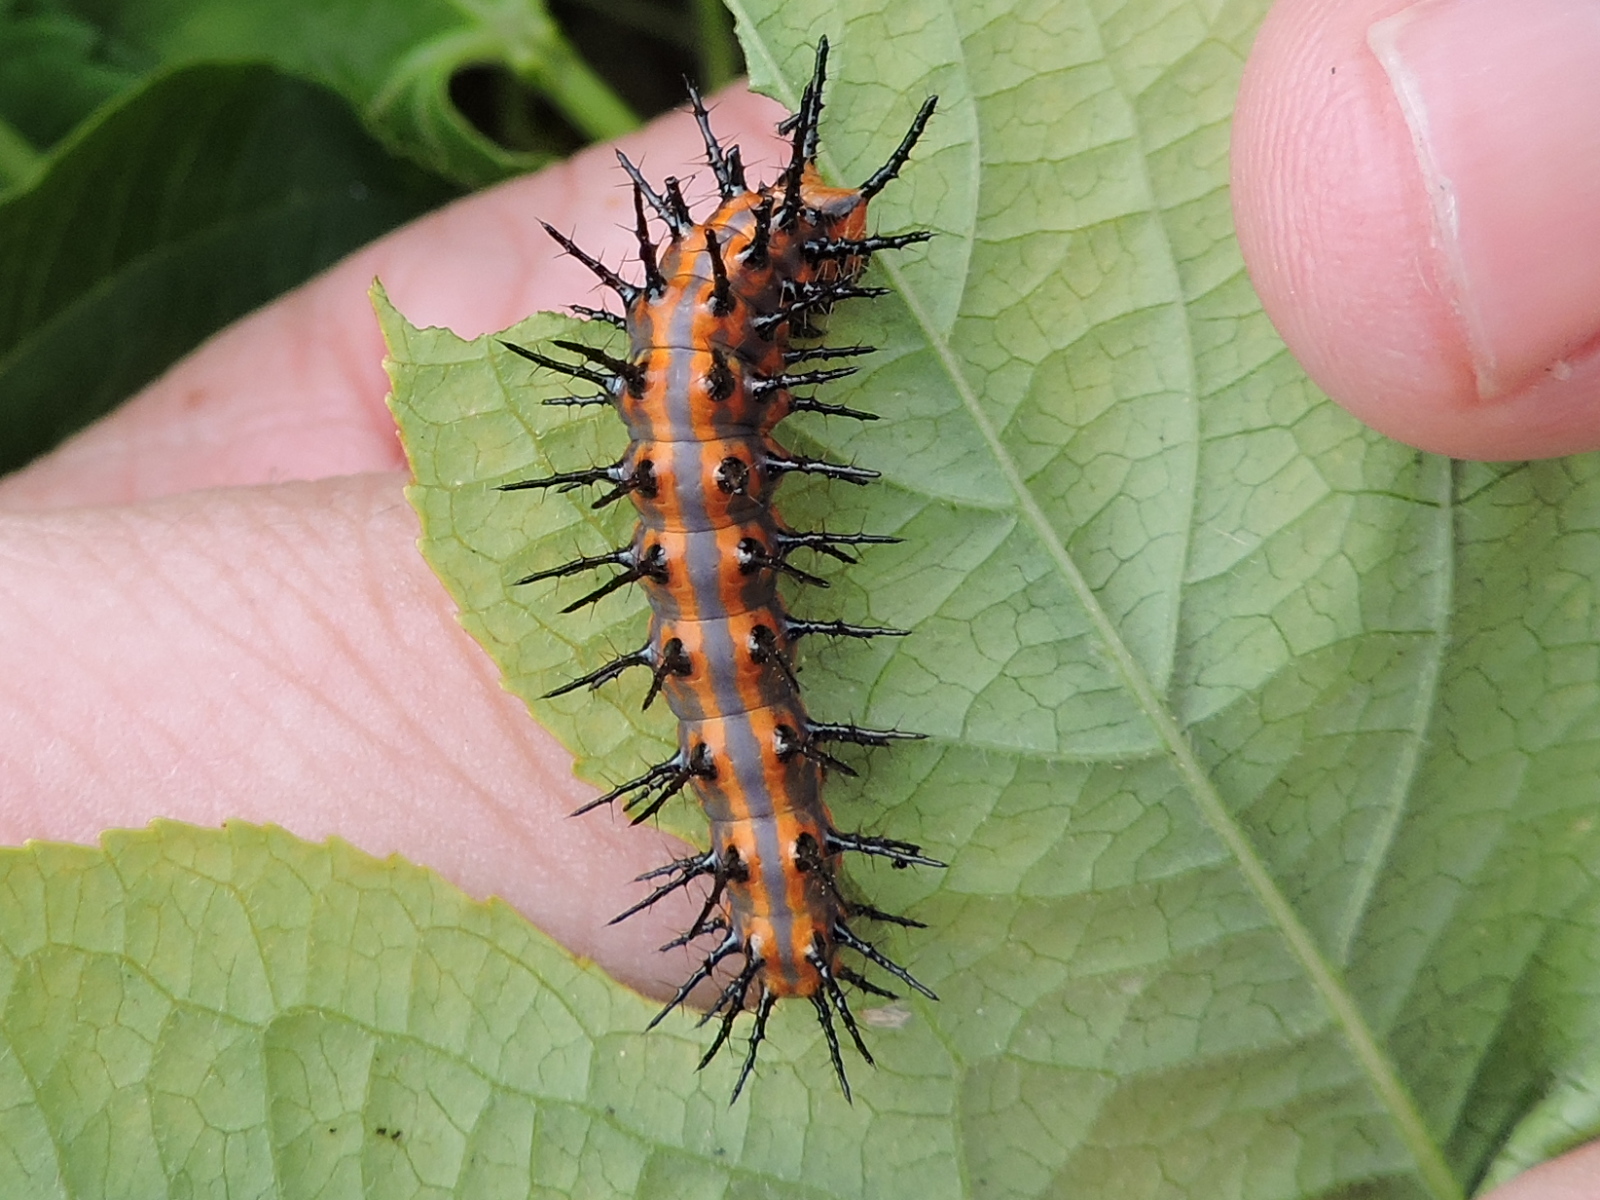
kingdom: Animalia
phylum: Arthropoda
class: Insecta
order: Lepidoptera
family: Nymphalidae
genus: Dione
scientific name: Dione vanillae
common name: Gulf fritillary
